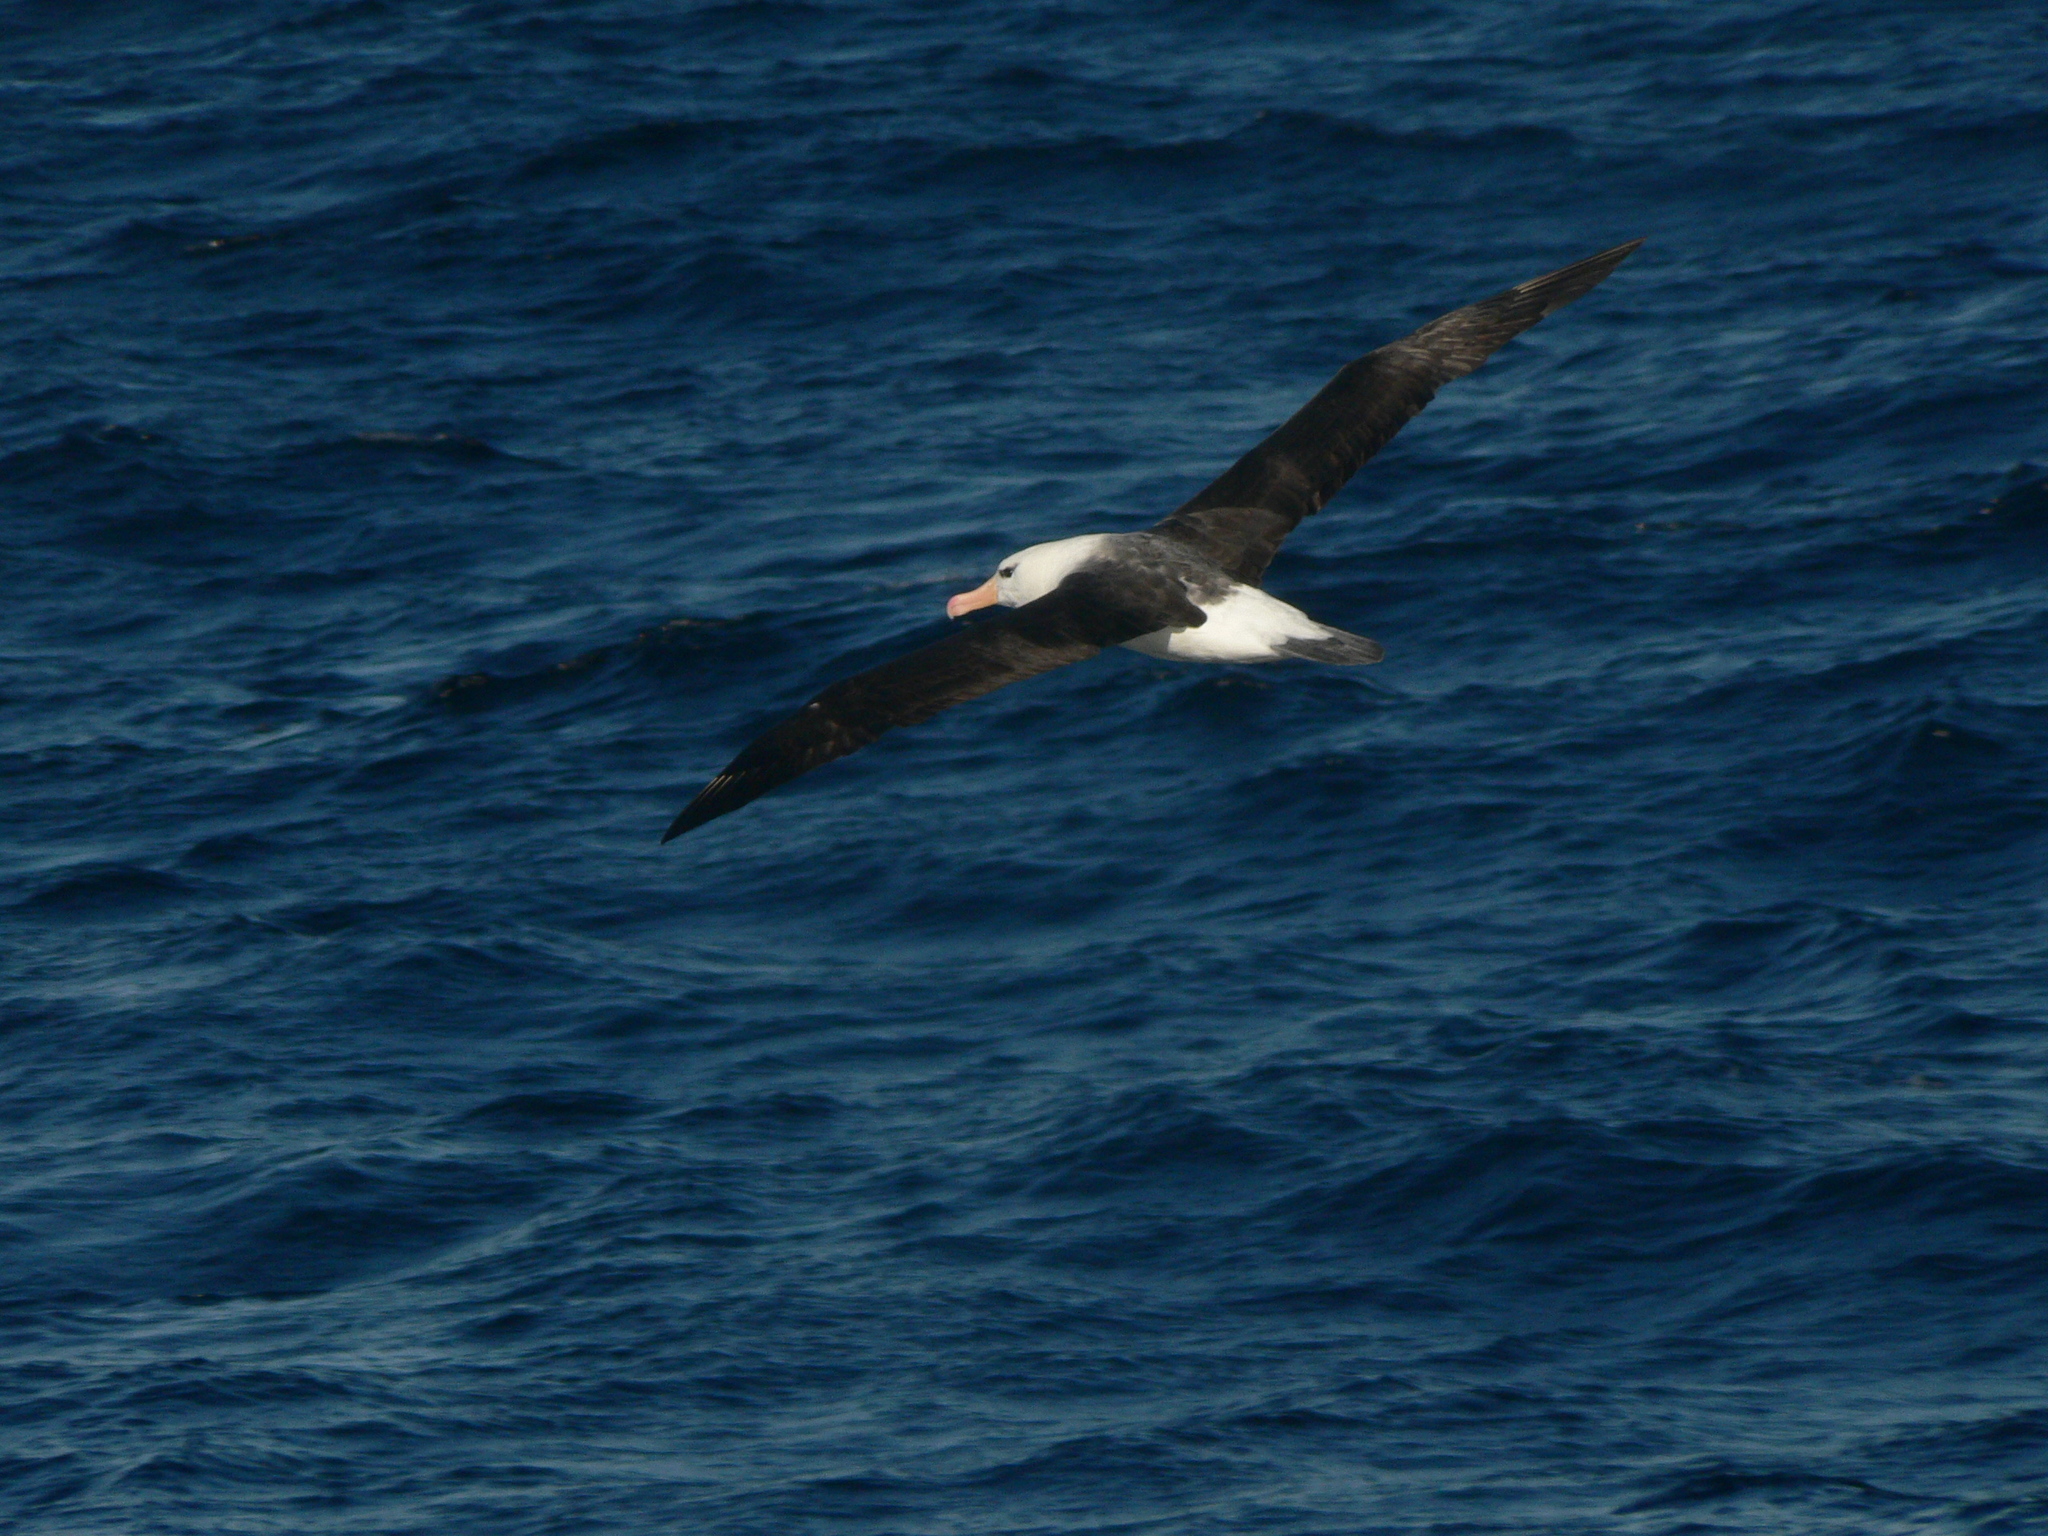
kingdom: Animalia
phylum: Chordata
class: Aves
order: Procellariiformes
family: Diomedeidae
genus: Thalassarche
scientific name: Thalassarche melanophris
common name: Black-browed albatross
